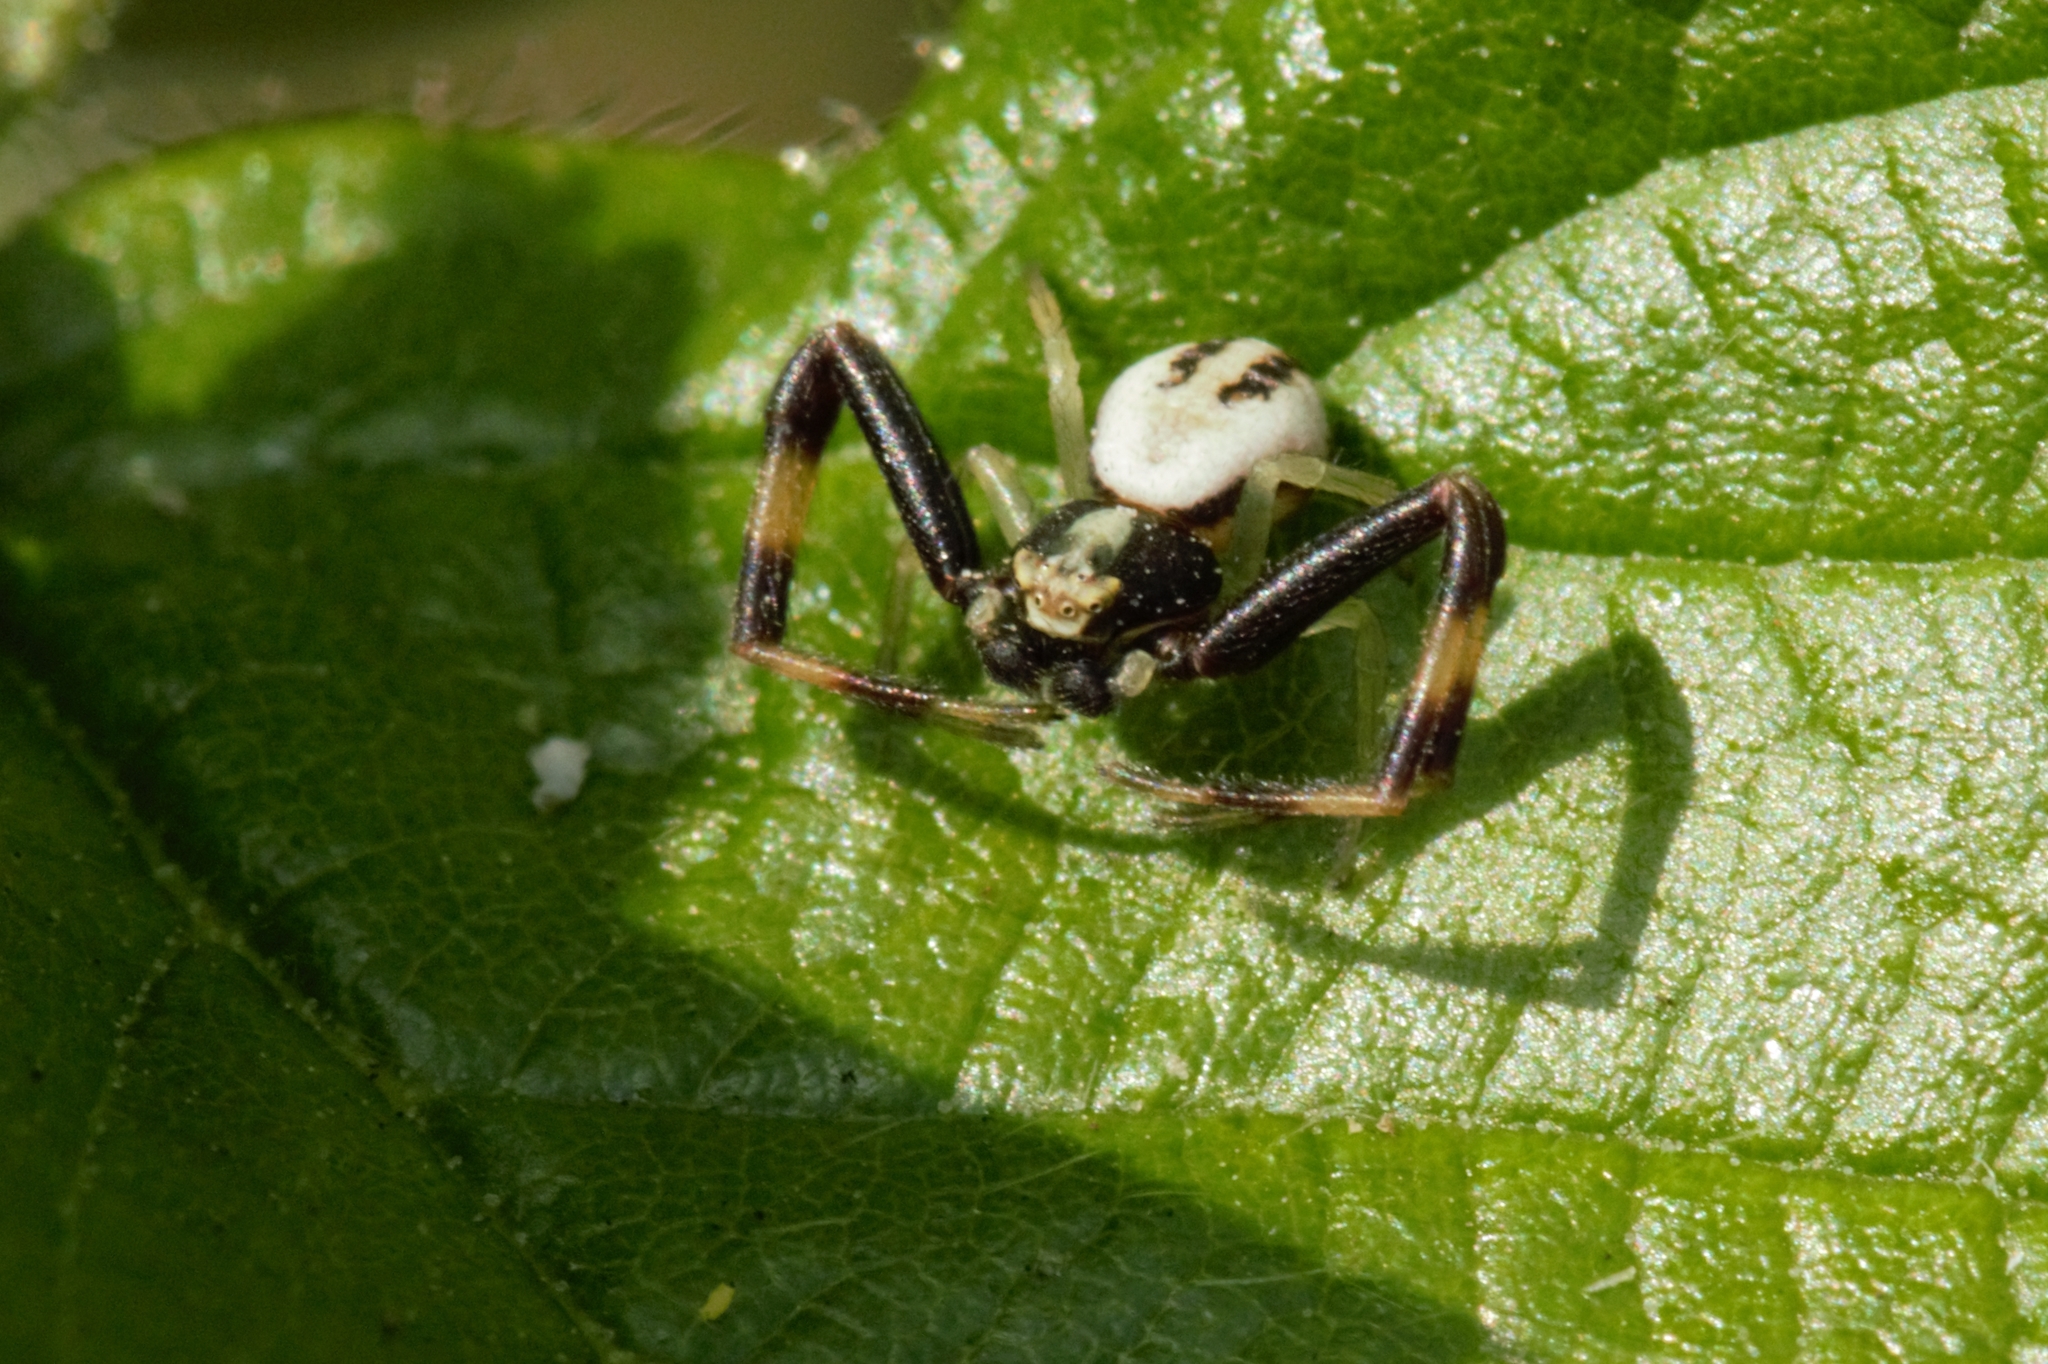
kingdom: Animalia
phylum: Arthropoda
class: Arachnida
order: Araneae
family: Thomisidae
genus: Misumena
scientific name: Misumena vatia
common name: Goldenrod crab spider
